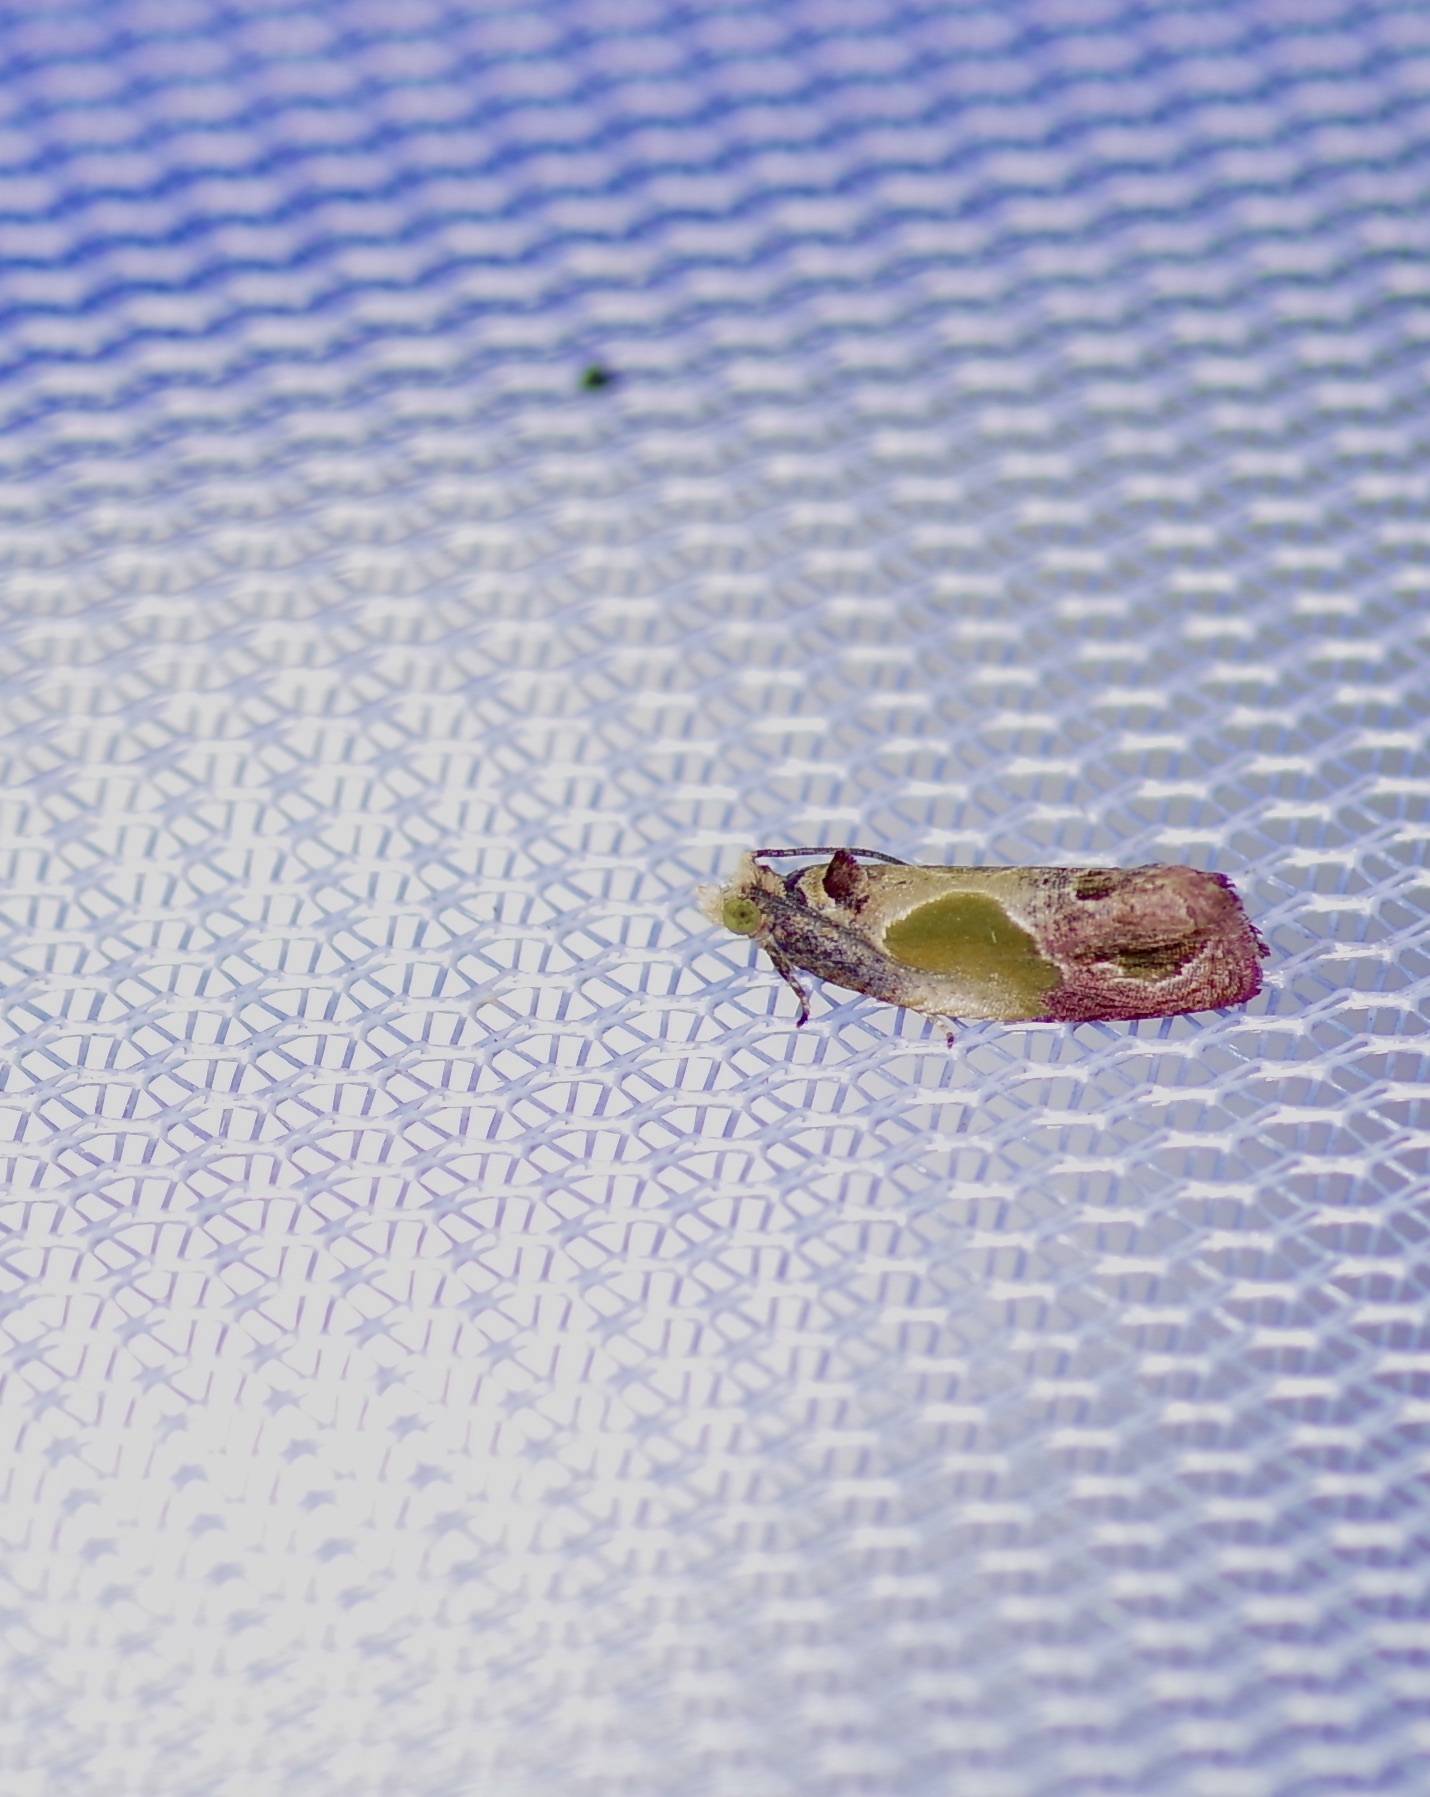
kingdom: Animalia
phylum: Arthropoda
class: Insecta
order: Lepidoptera
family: Tortricidae
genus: Eumarozia
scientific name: Eumarozia malachitana
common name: Sculptured moth
